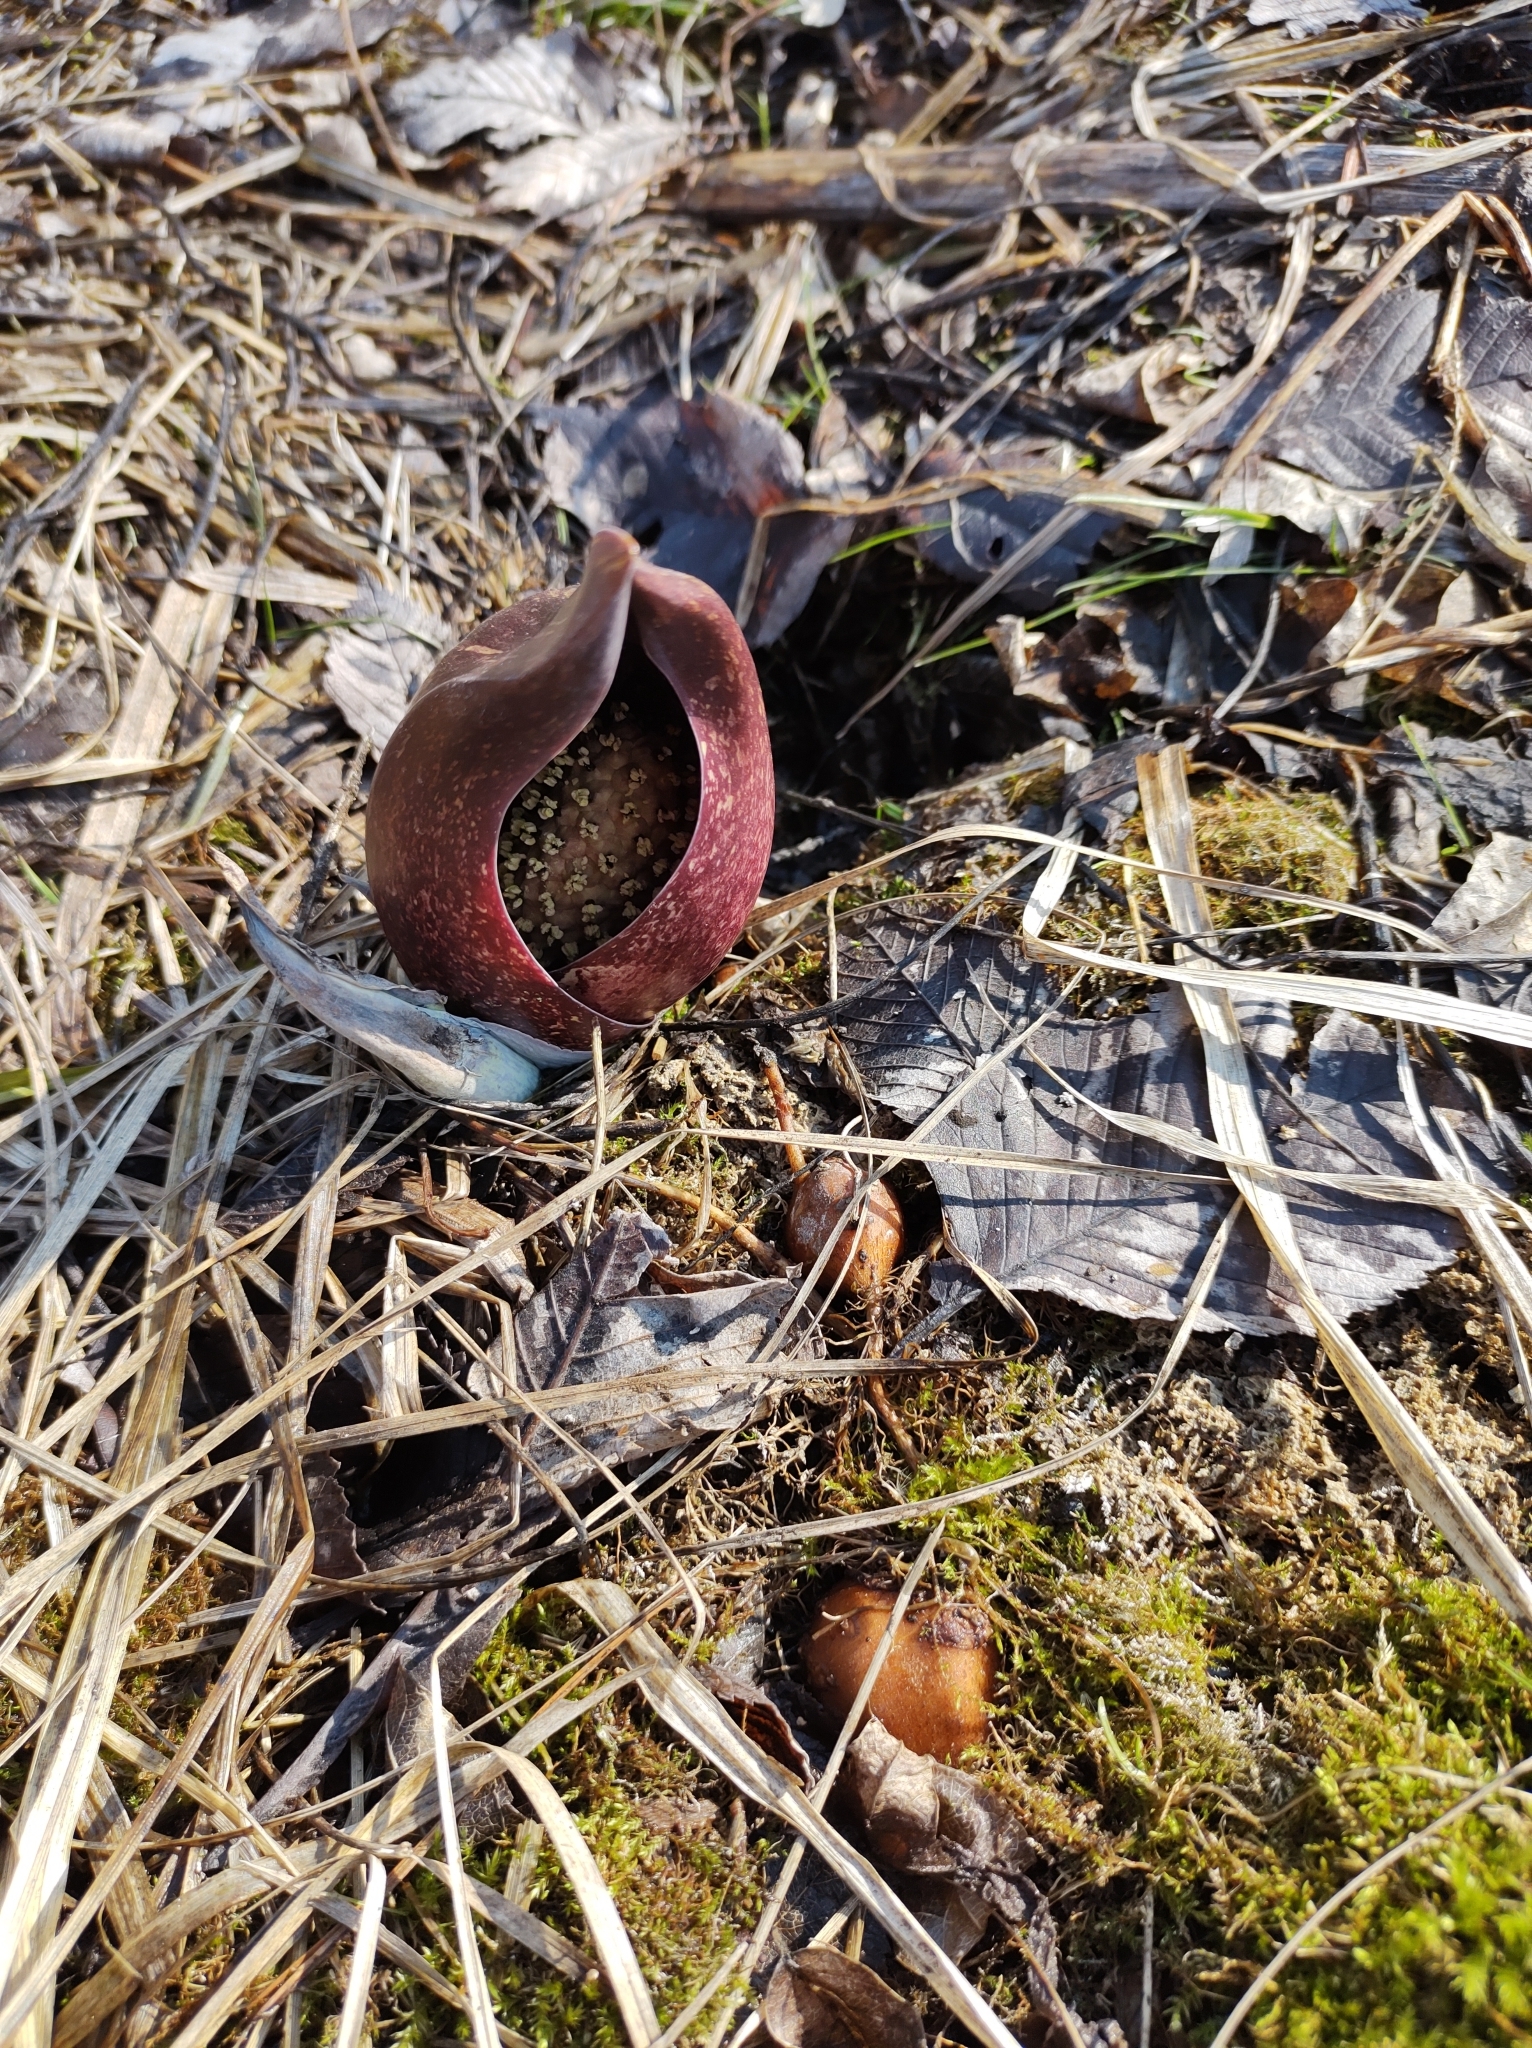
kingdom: Plantae
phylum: Tracheophyta
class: Liliopsida
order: Alismatales
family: Araceae
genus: Symplocarpus
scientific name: Symplocarpus foetidus
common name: Eastern skunk cabbage
